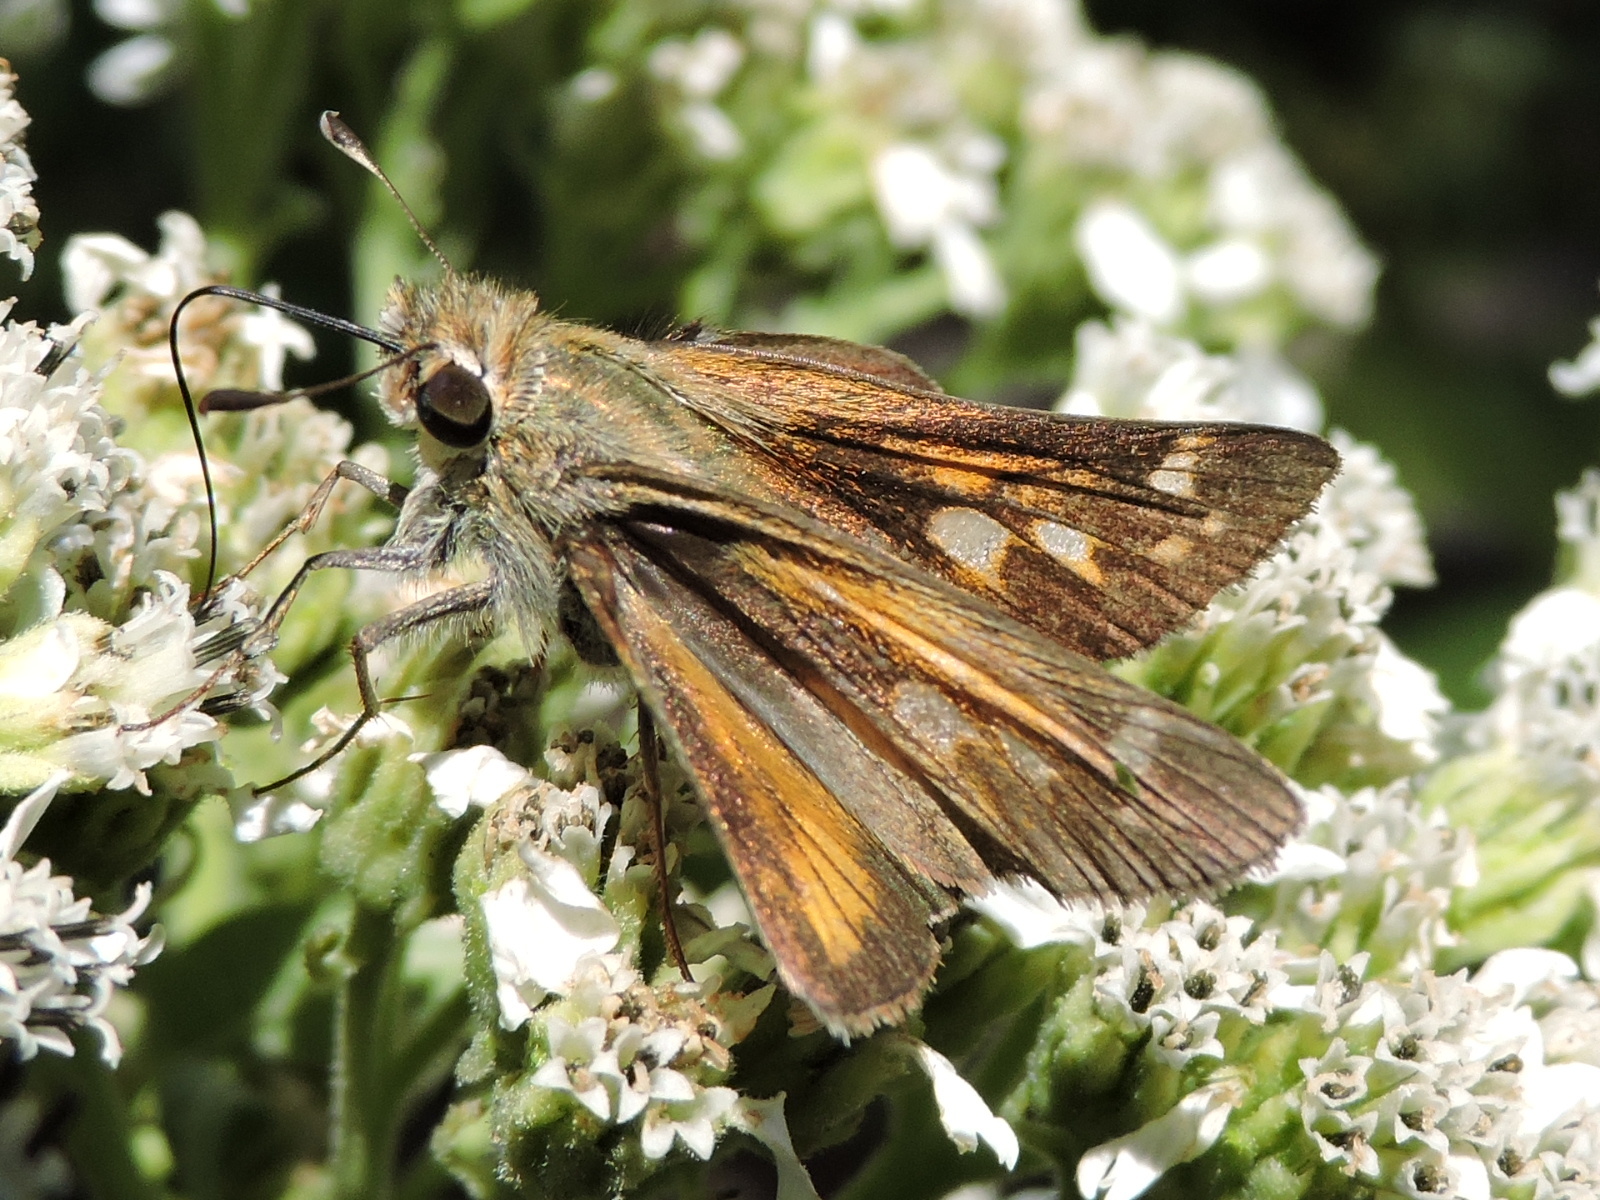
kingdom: Animalia
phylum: Arthropoda
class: Insecta
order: Lepidoptera
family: Hesperiidae
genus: Atalopedes
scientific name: Atalopedes
